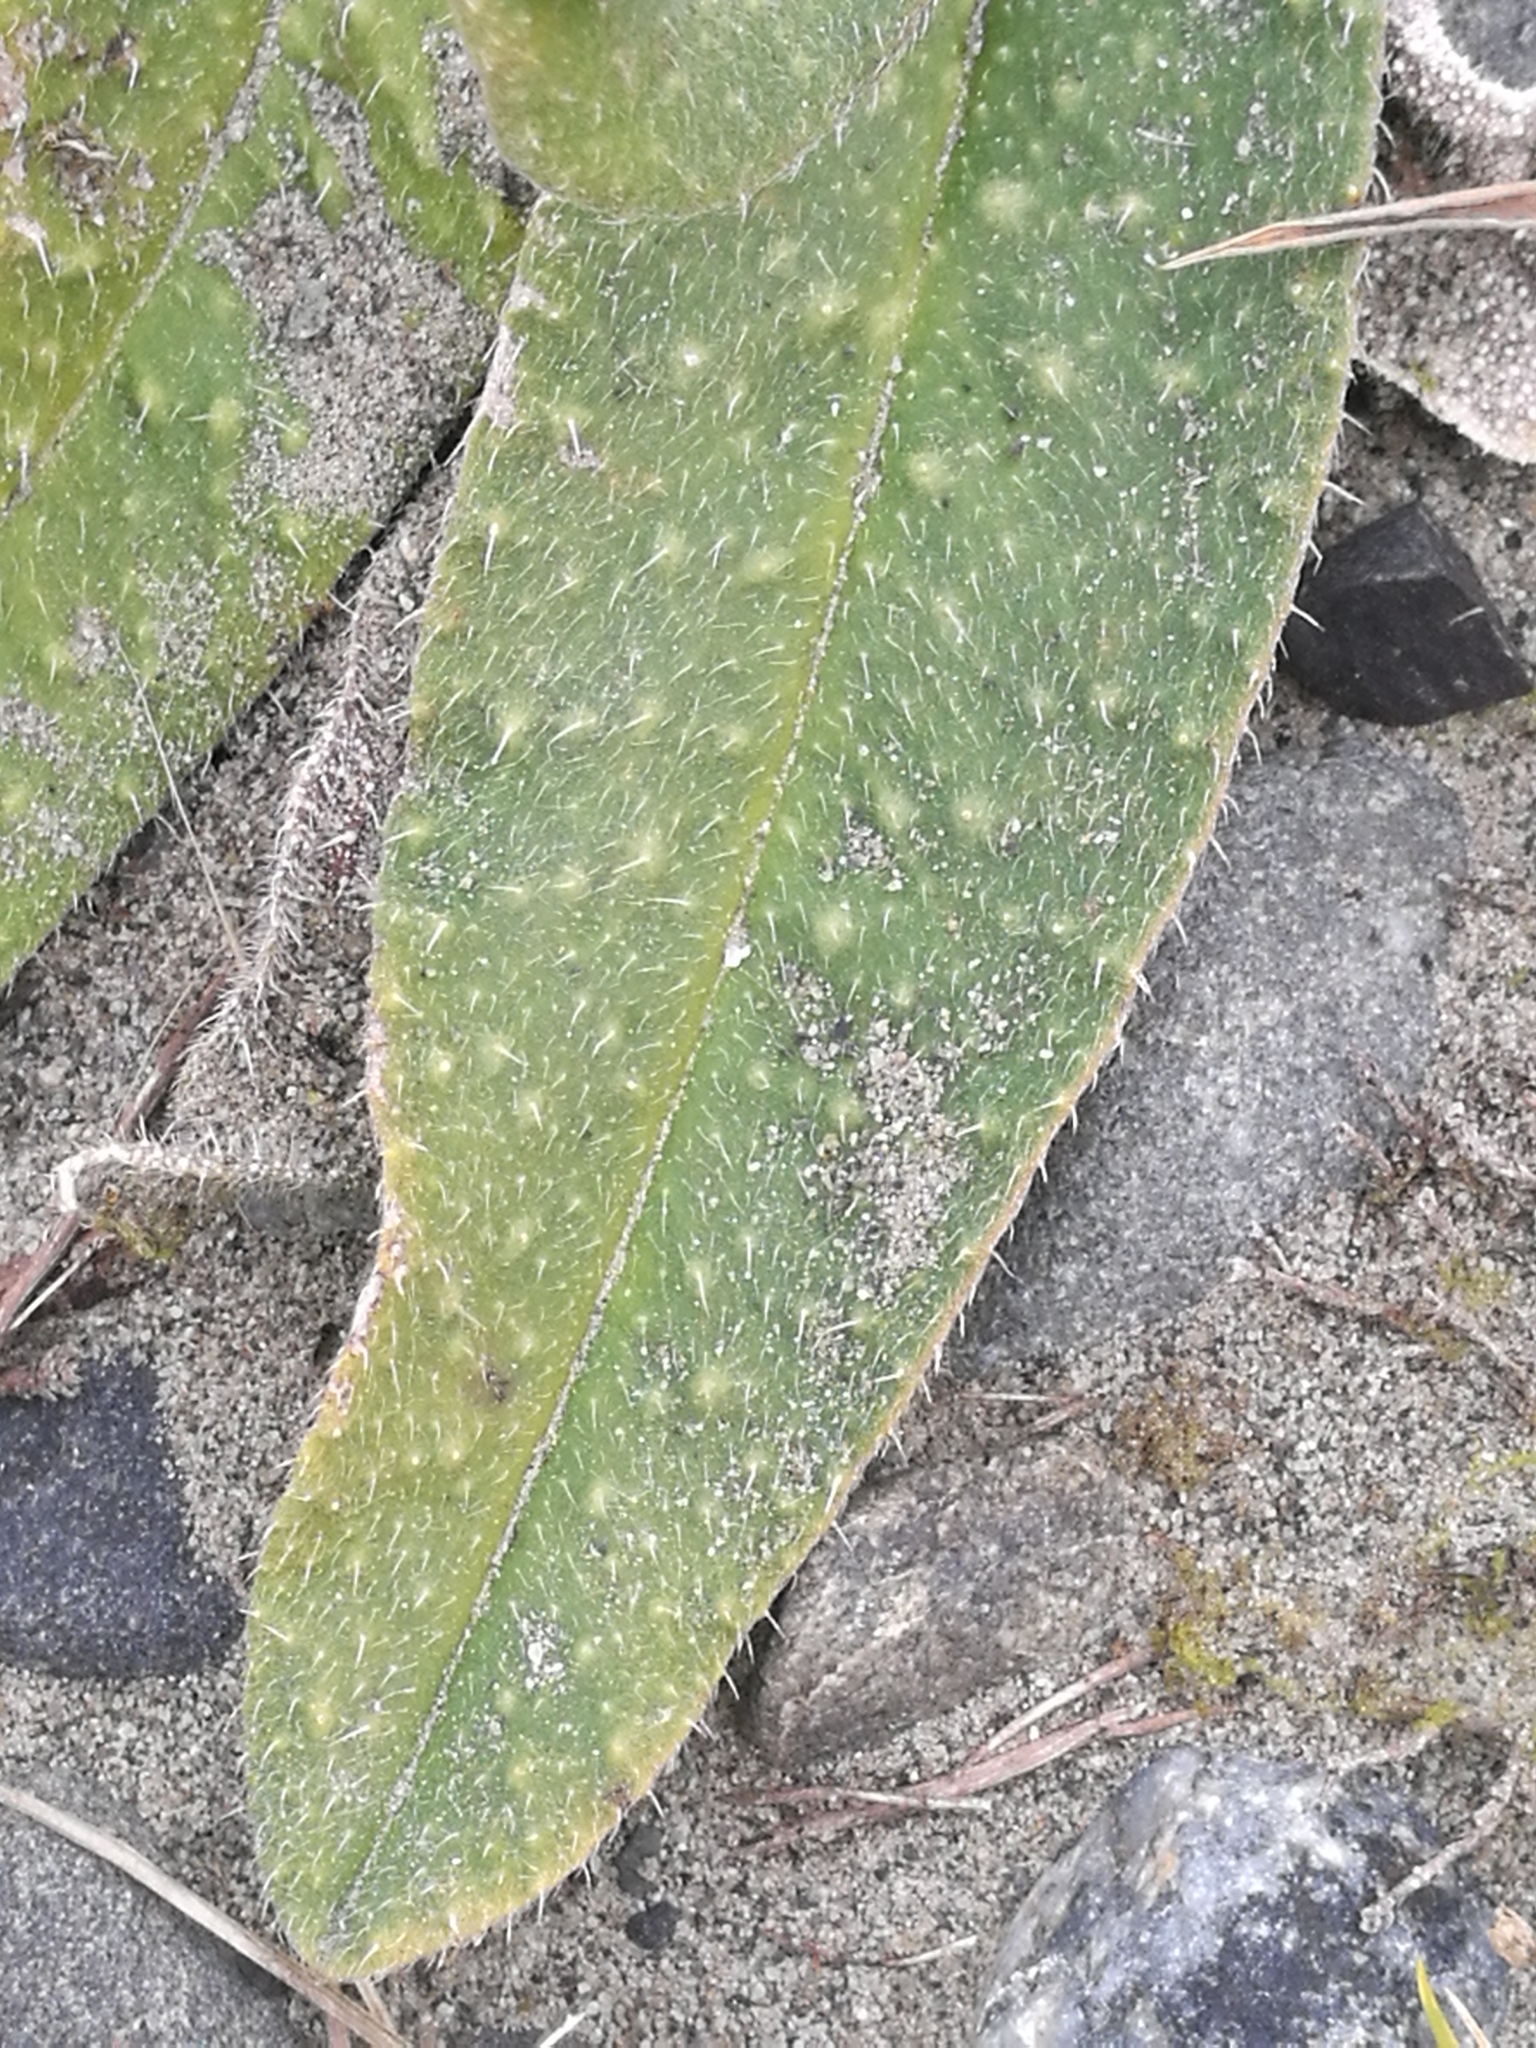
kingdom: Plantae
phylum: Tracheophyta
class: Magnoliopsida
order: Asterales
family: Asteraceae
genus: Helminthotheca
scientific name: Helminthotheca echioides
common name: Ox-tongue
